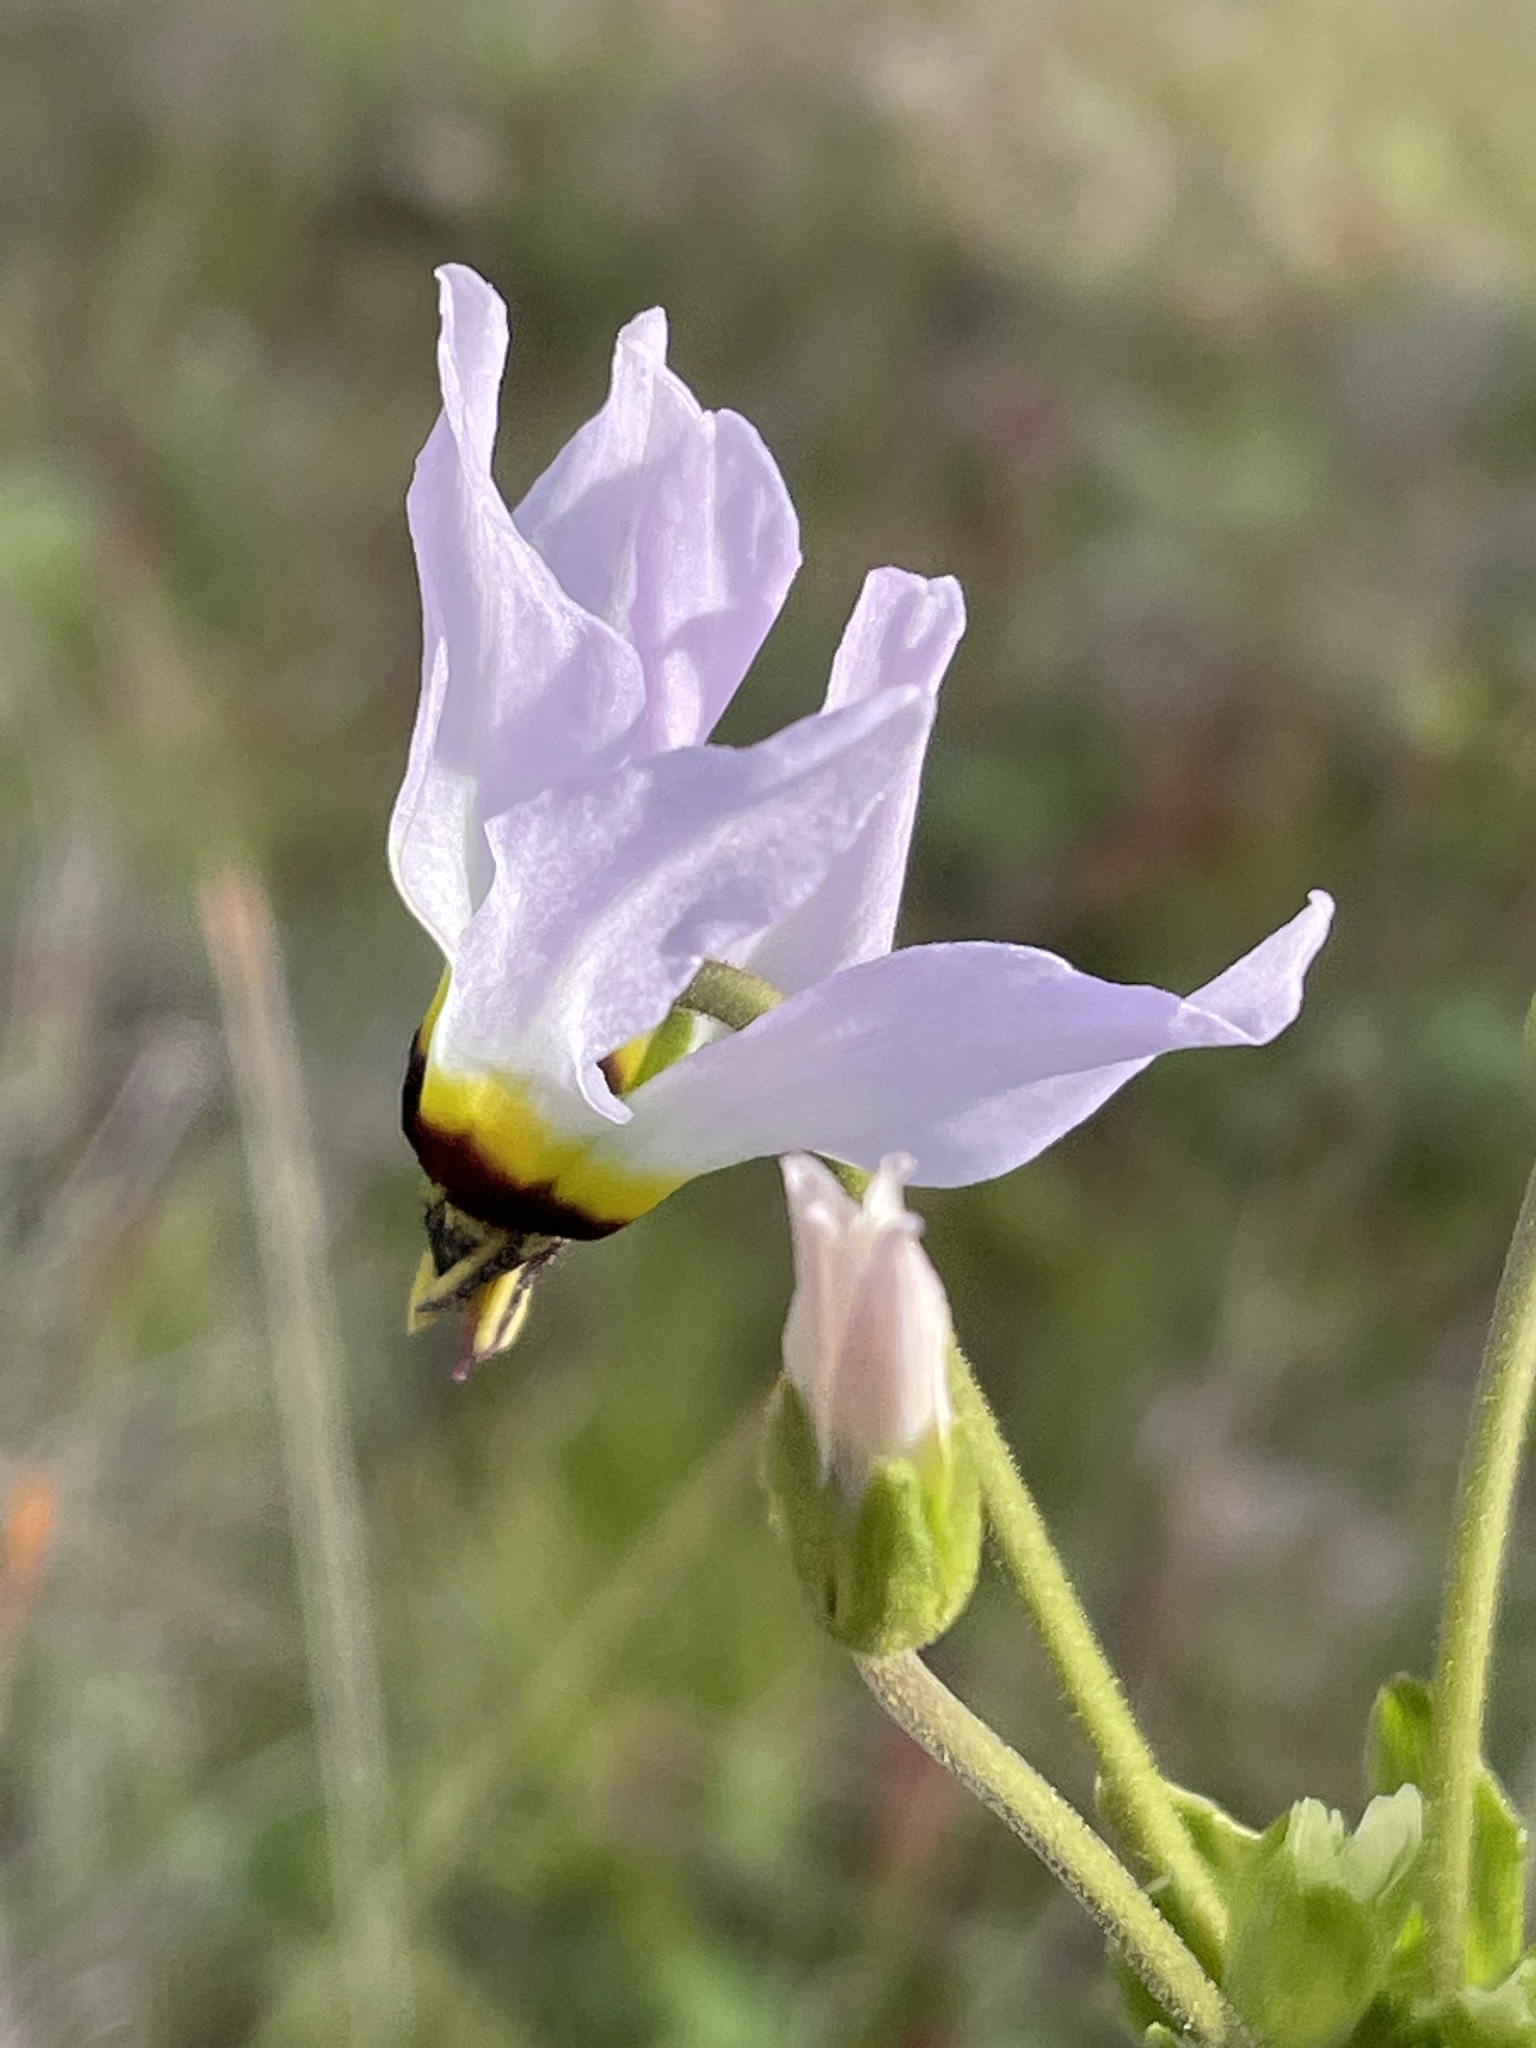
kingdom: Plantae
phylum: Tracheophyta
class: Magnoliopsida
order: Ericales
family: Primulaceae
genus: Dodecatheon
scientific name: Dodecatheon clevelandii
